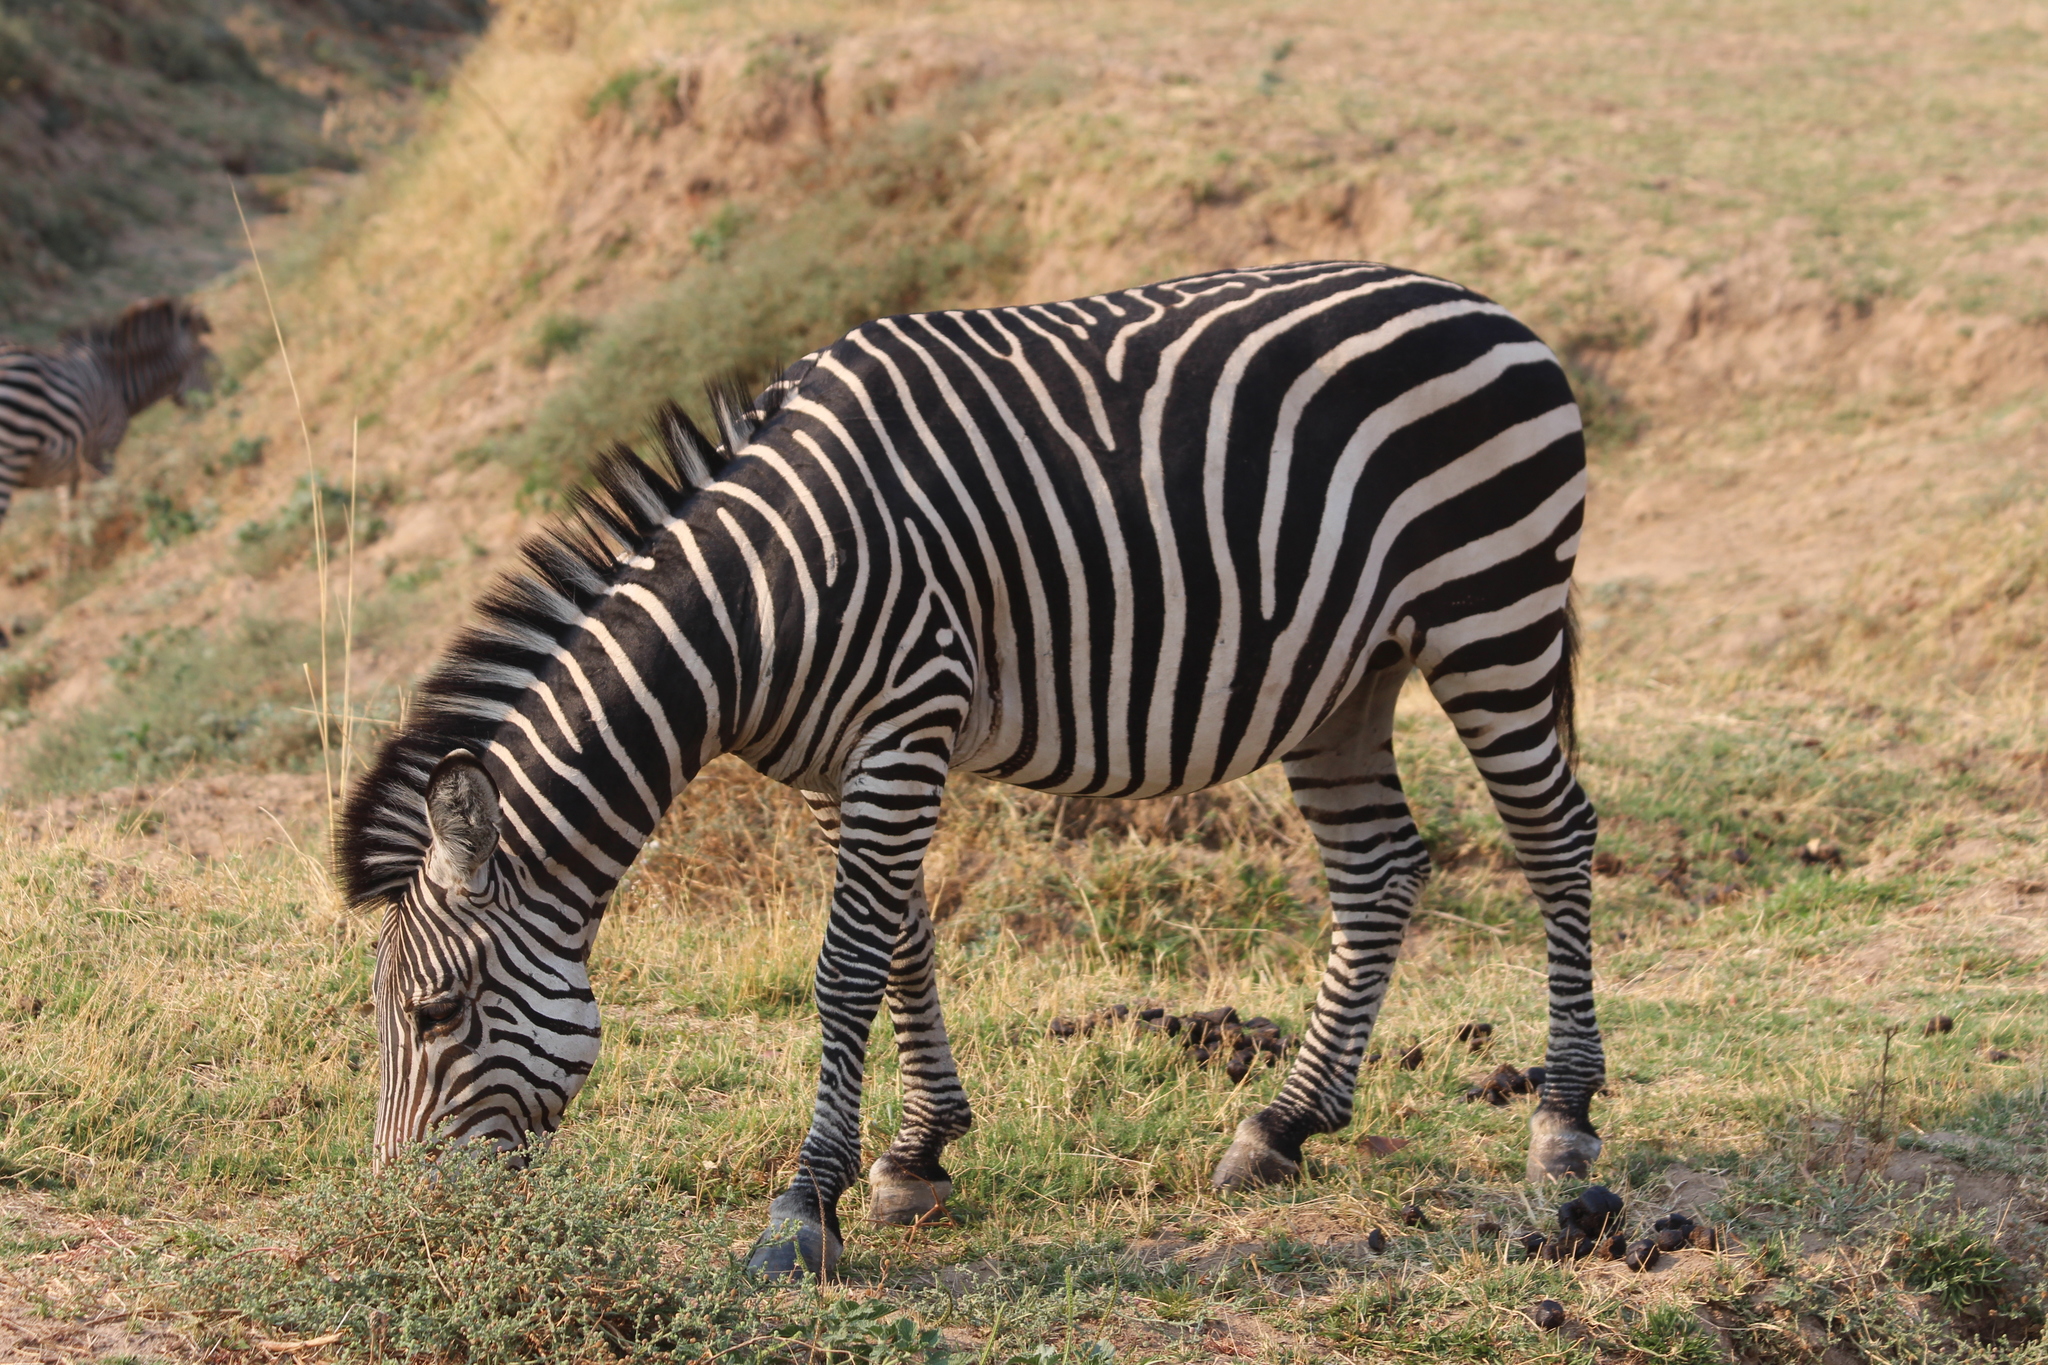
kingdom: Animalia
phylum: Chordata
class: Mammalia
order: Perissodactyla
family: Equidae
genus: Equus
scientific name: Equus quagga
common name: Plains zebra
